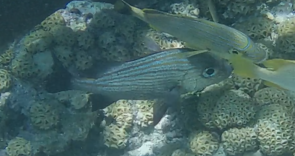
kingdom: Animalia
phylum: Chordata
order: Perciformes
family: Haemulidae
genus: Haemulon
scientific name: Haemulon carbonarium
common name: Caesar grunt
